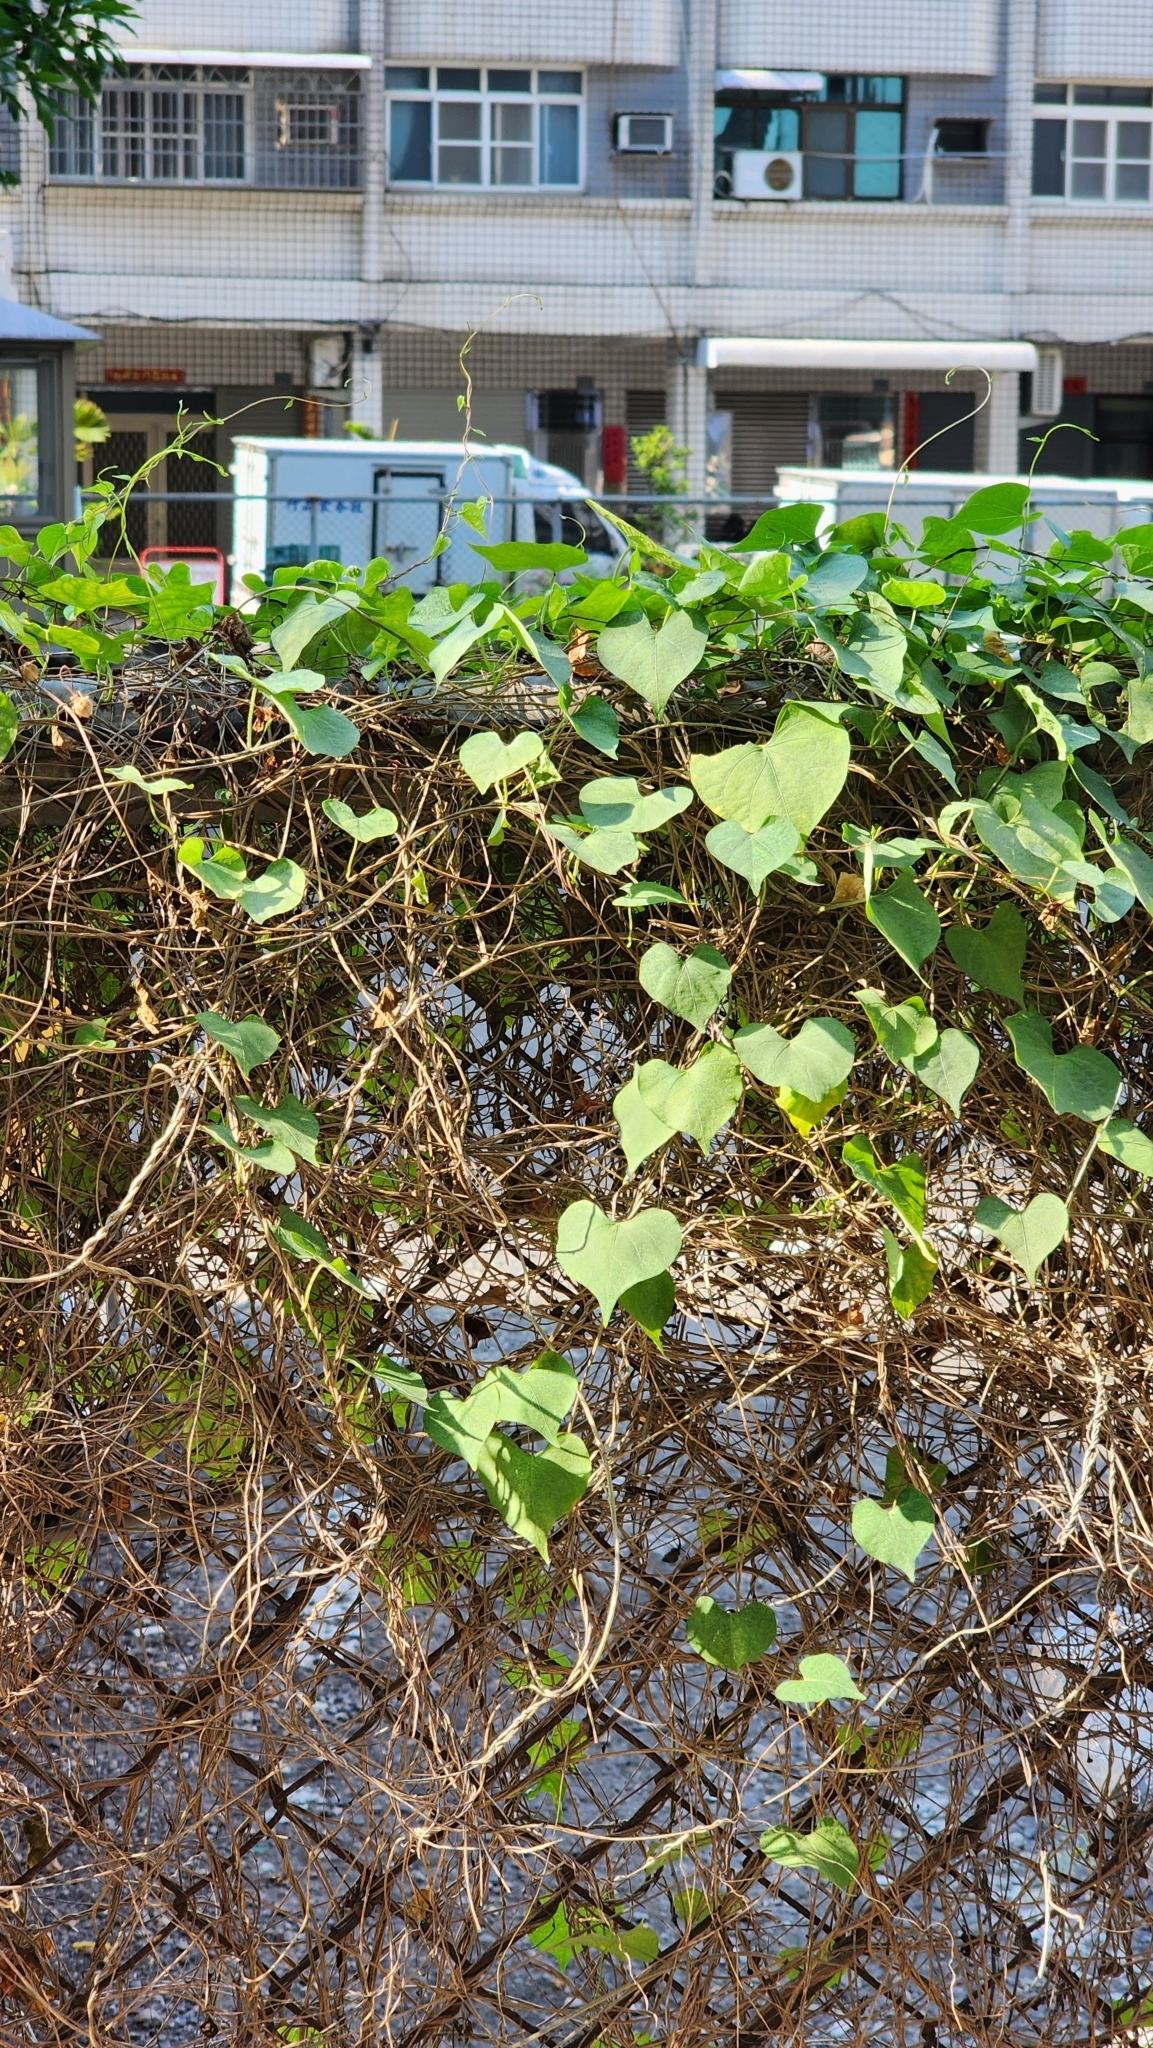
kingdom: Plantae
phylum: Tracheophyta
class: Magnoliopsida
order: Solanales
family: Convolvulaceae
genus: Ipomoea
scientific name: Ipomoea obscura
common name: Obscure morning-glory
